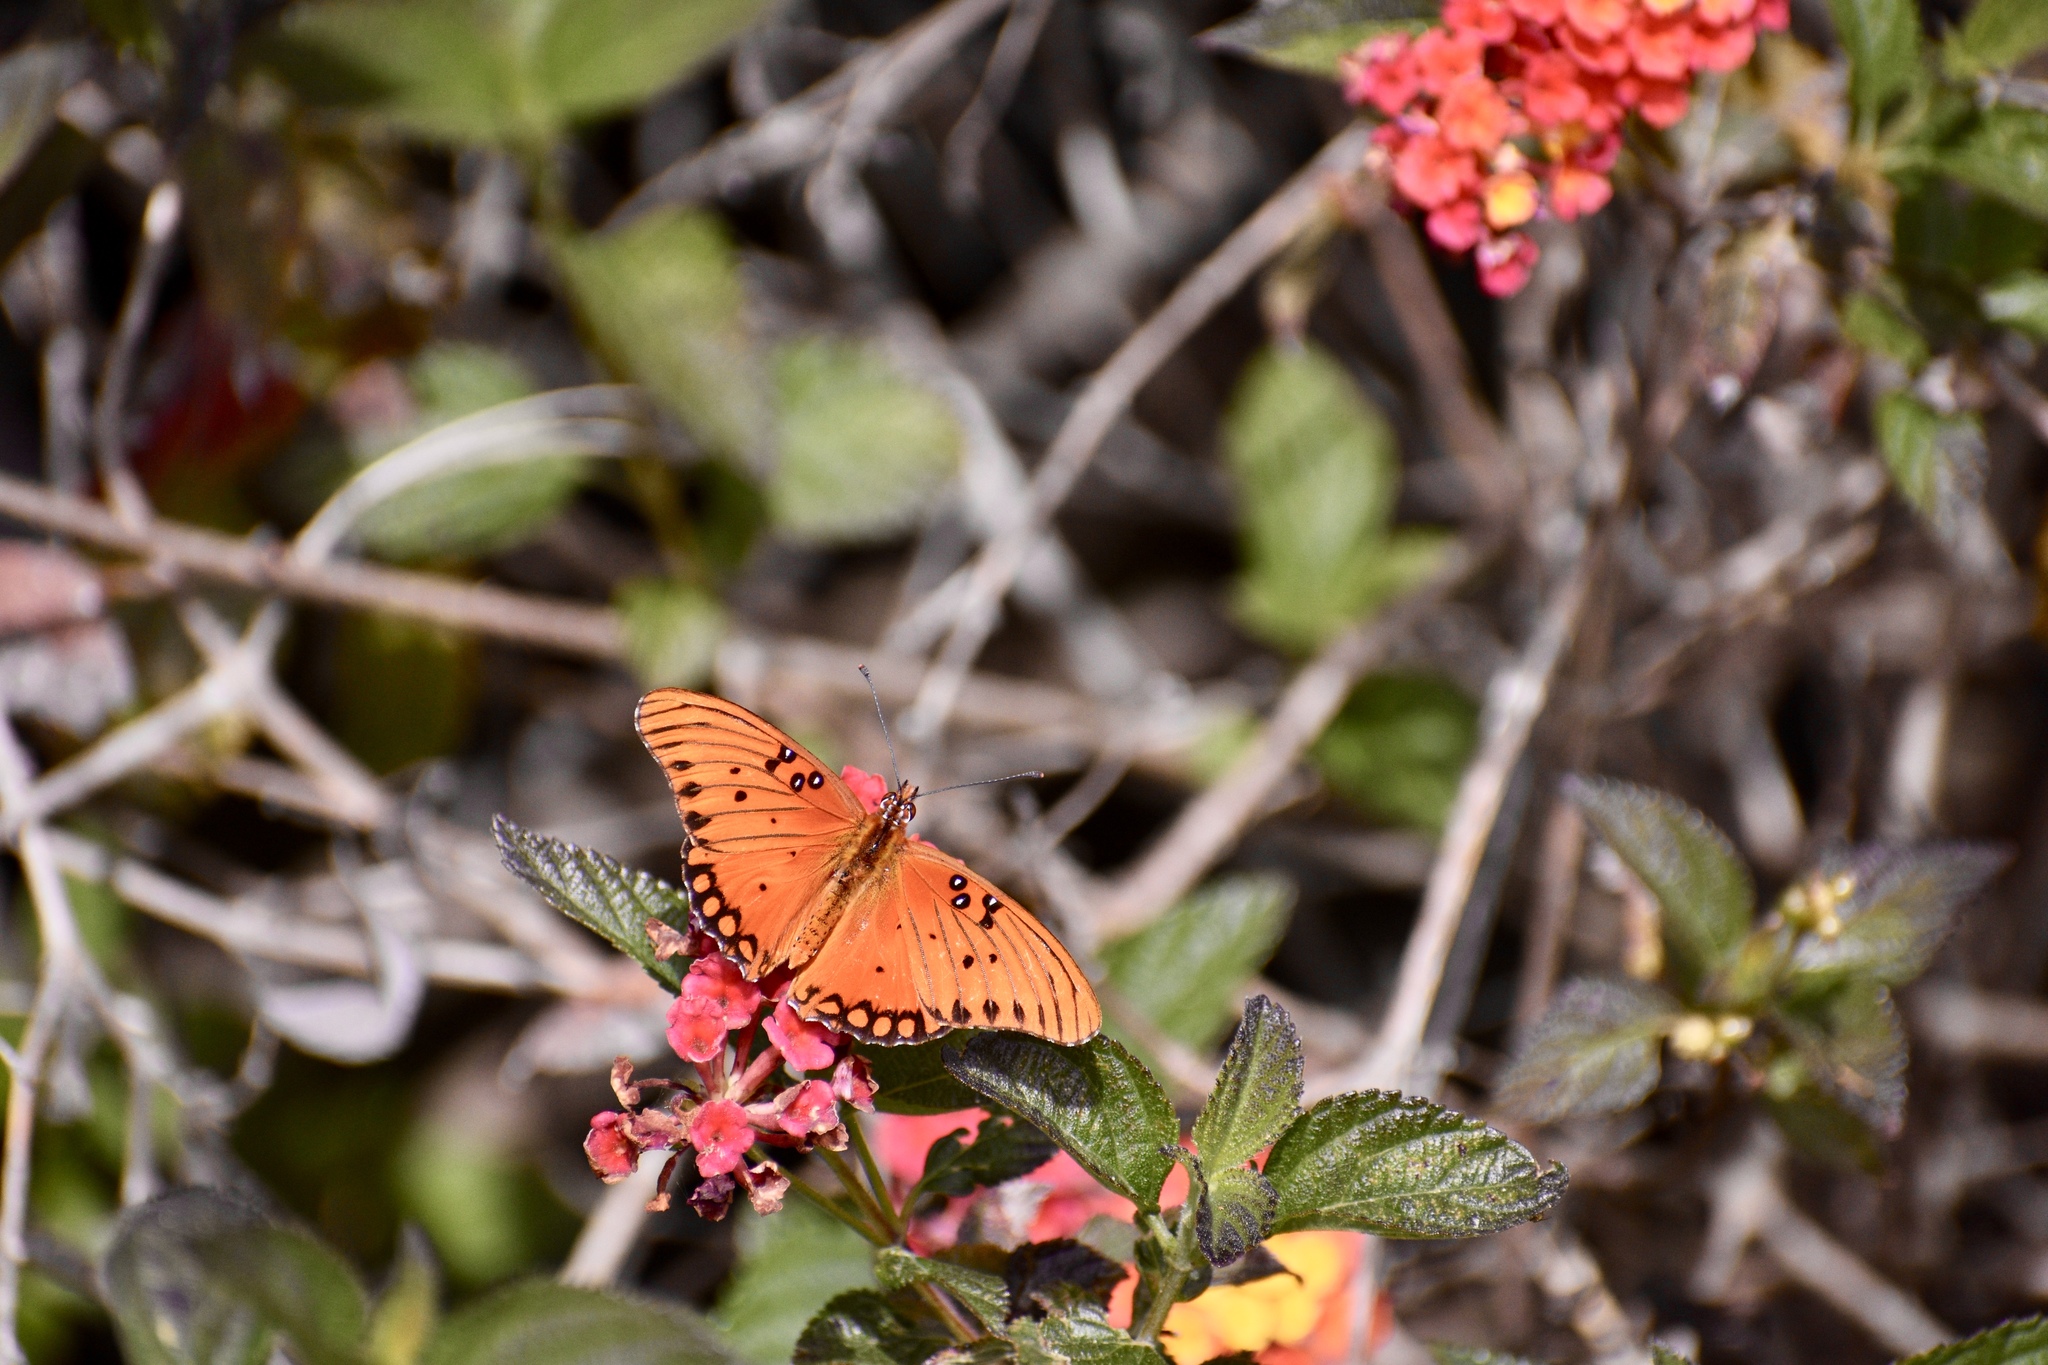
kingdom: Animalia
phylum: Arthropoda
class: Insecta
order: Lepidoptera
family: Nymphalidae
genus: Dione
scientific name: Dione vanillae
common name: Gulf fritillary
